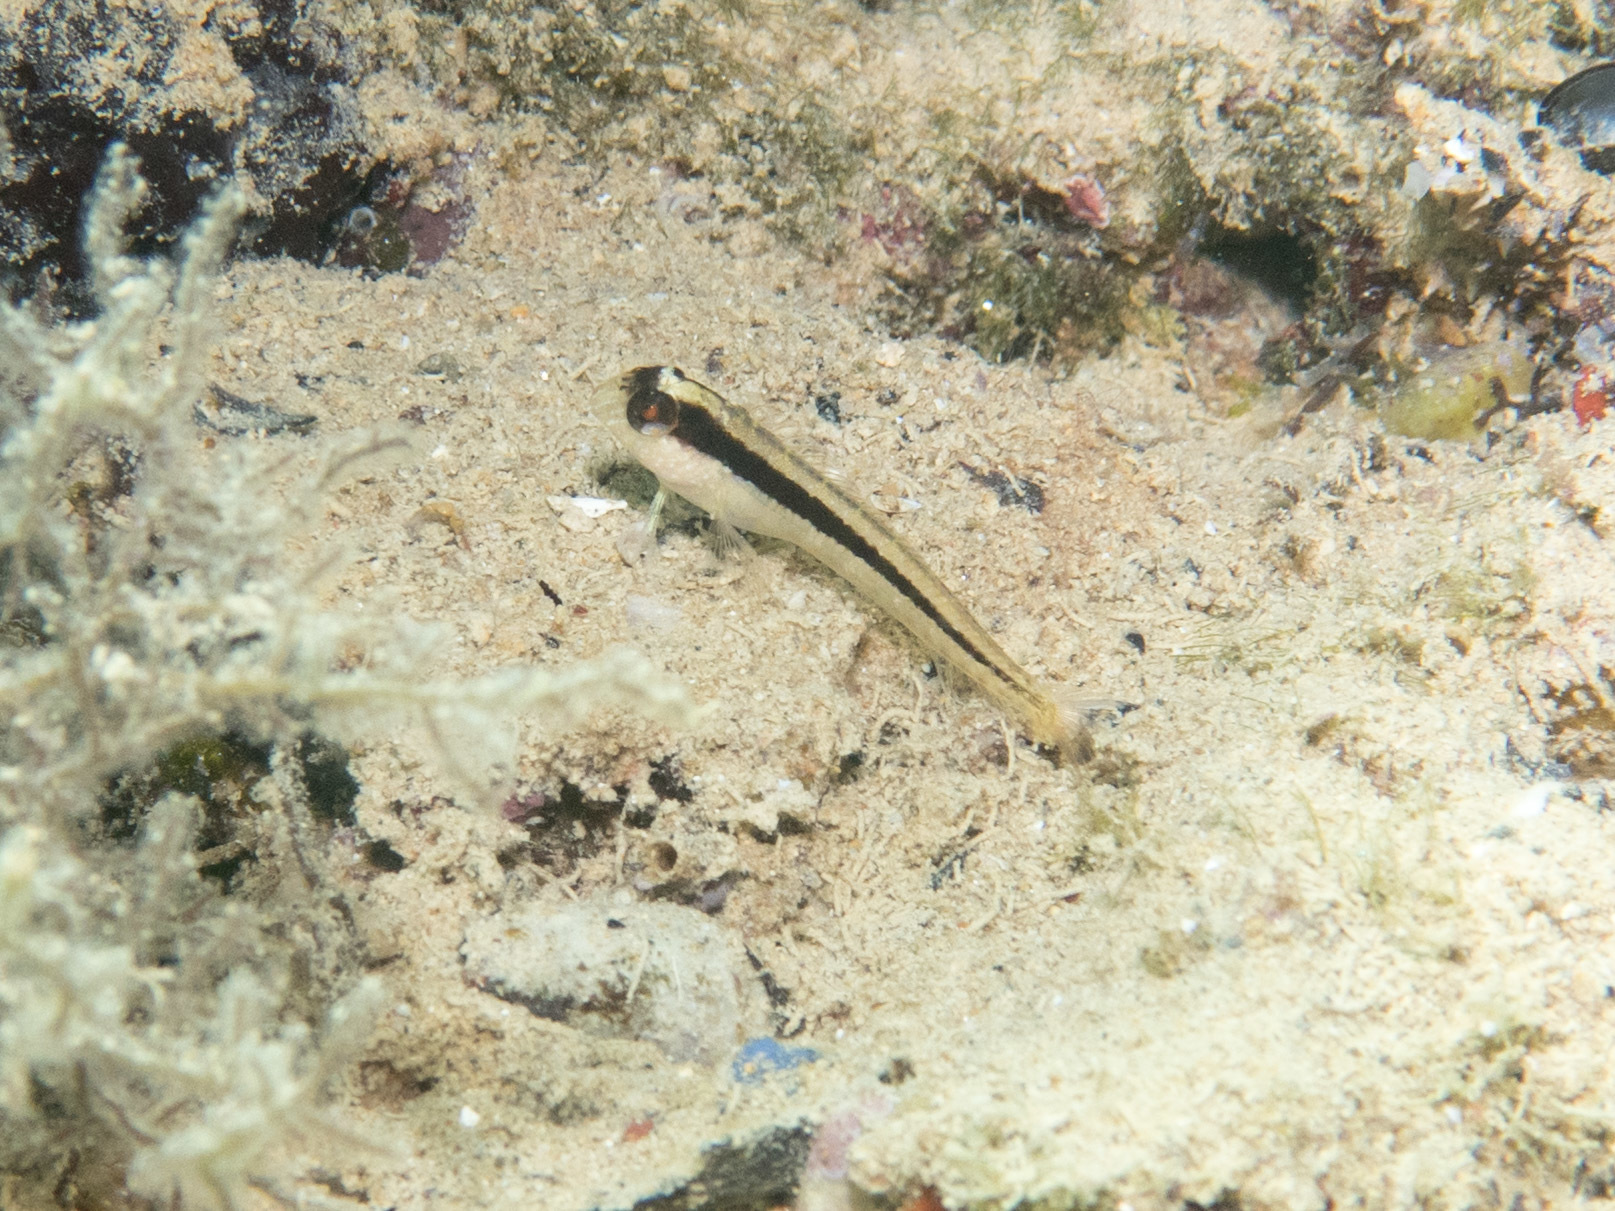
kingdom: Animalia
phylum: Chordata
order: Perciformes
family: Blenniidae
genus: Parablennius
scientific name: Parablennius rouxi
